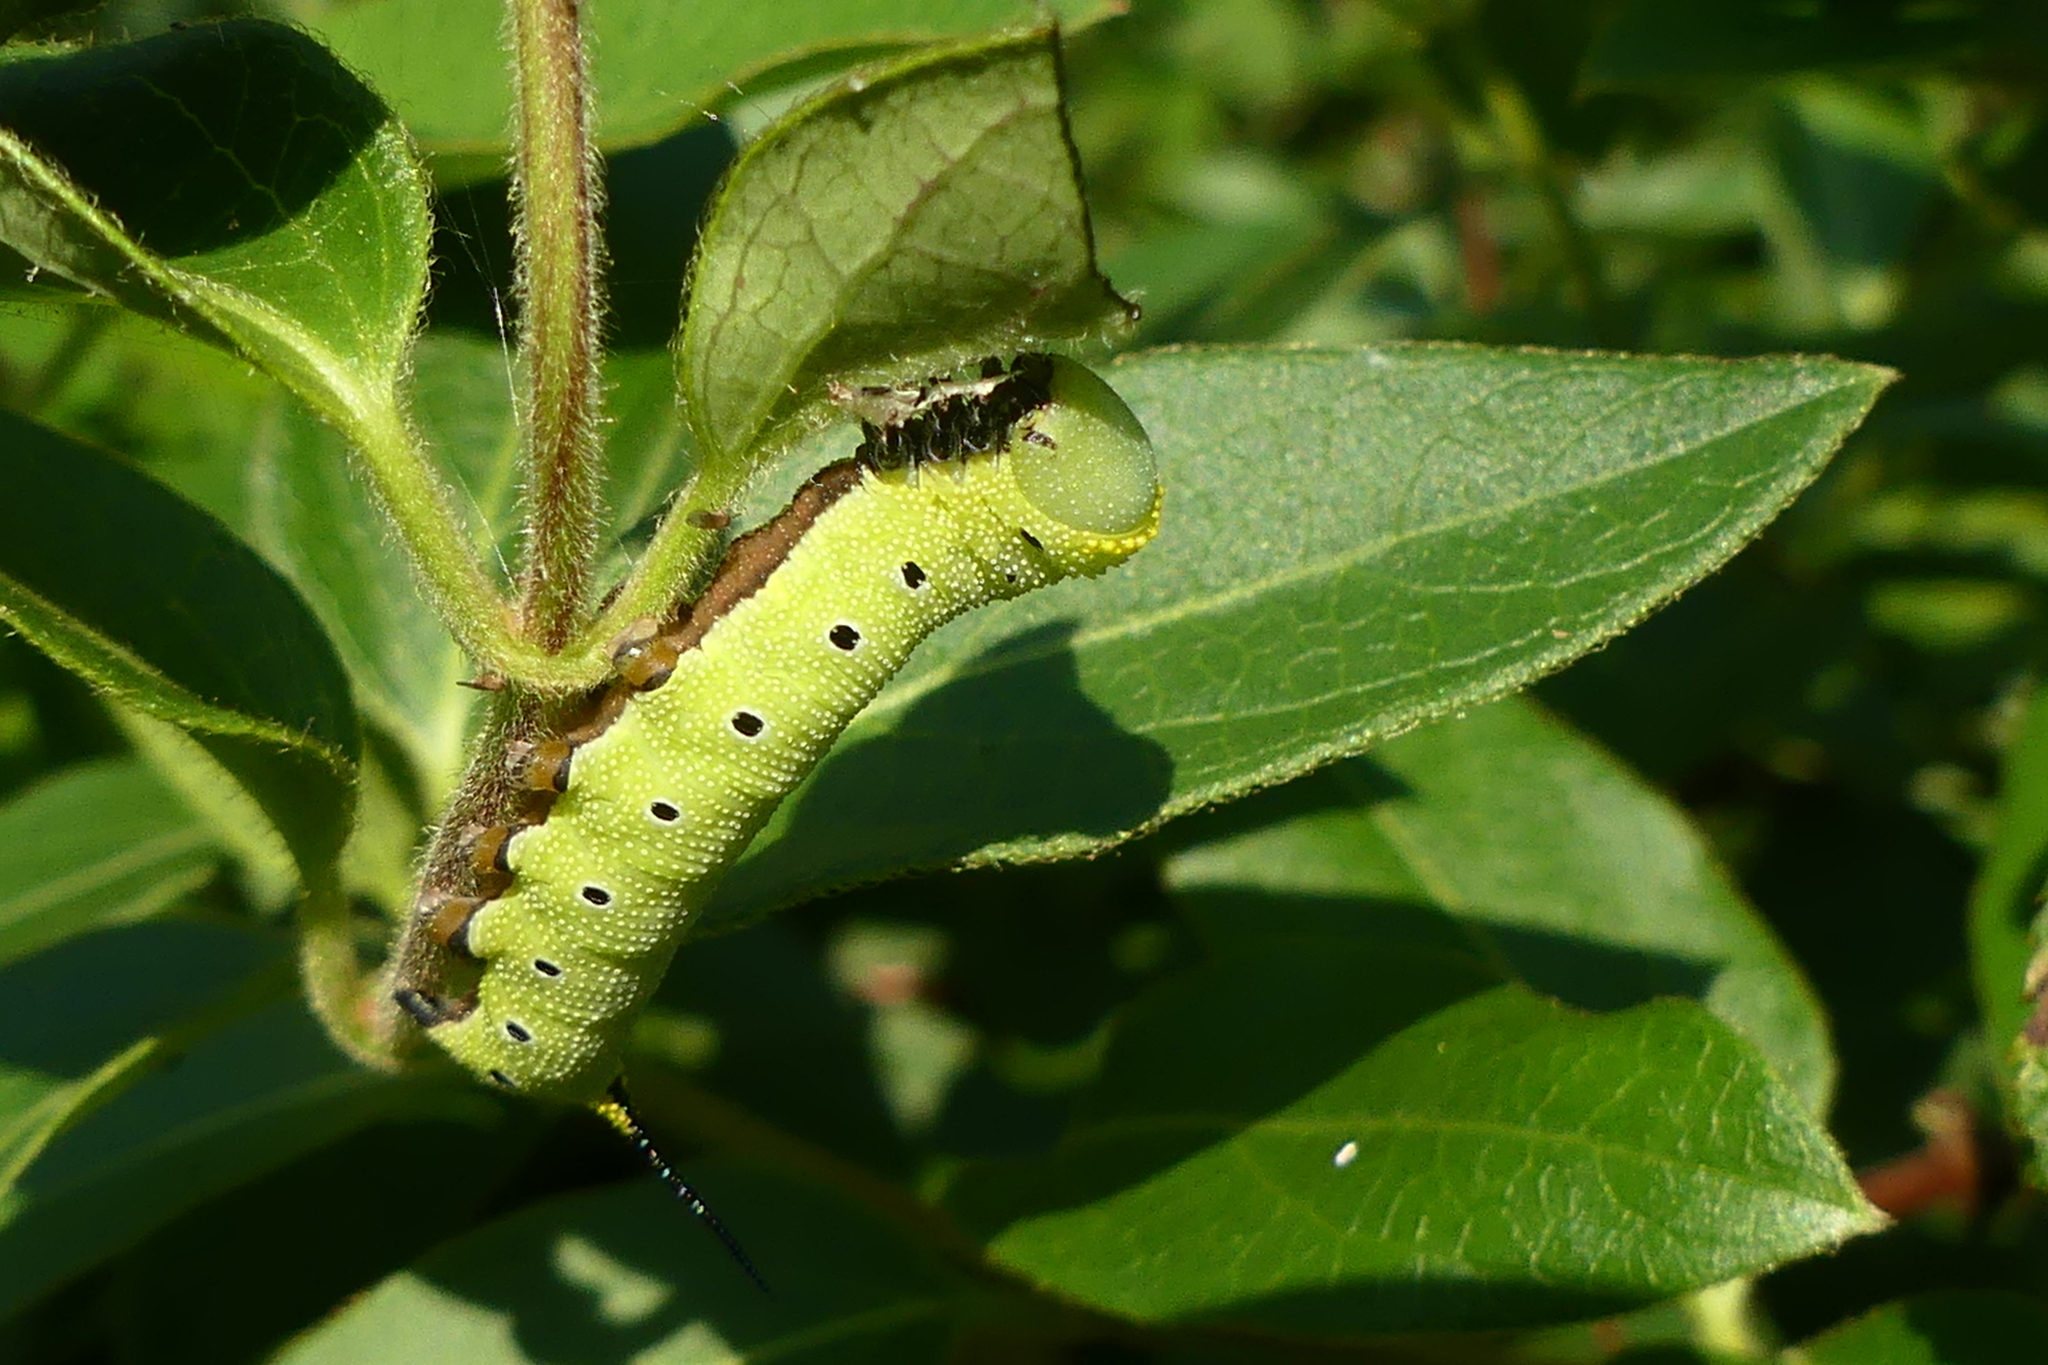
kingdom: Animalia
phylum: Arthropoda
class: Insecta
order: Lepidoptera
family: Sphingidae
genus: Hemaris
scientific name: Hemaris diffinis
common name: Bumblebee moth
